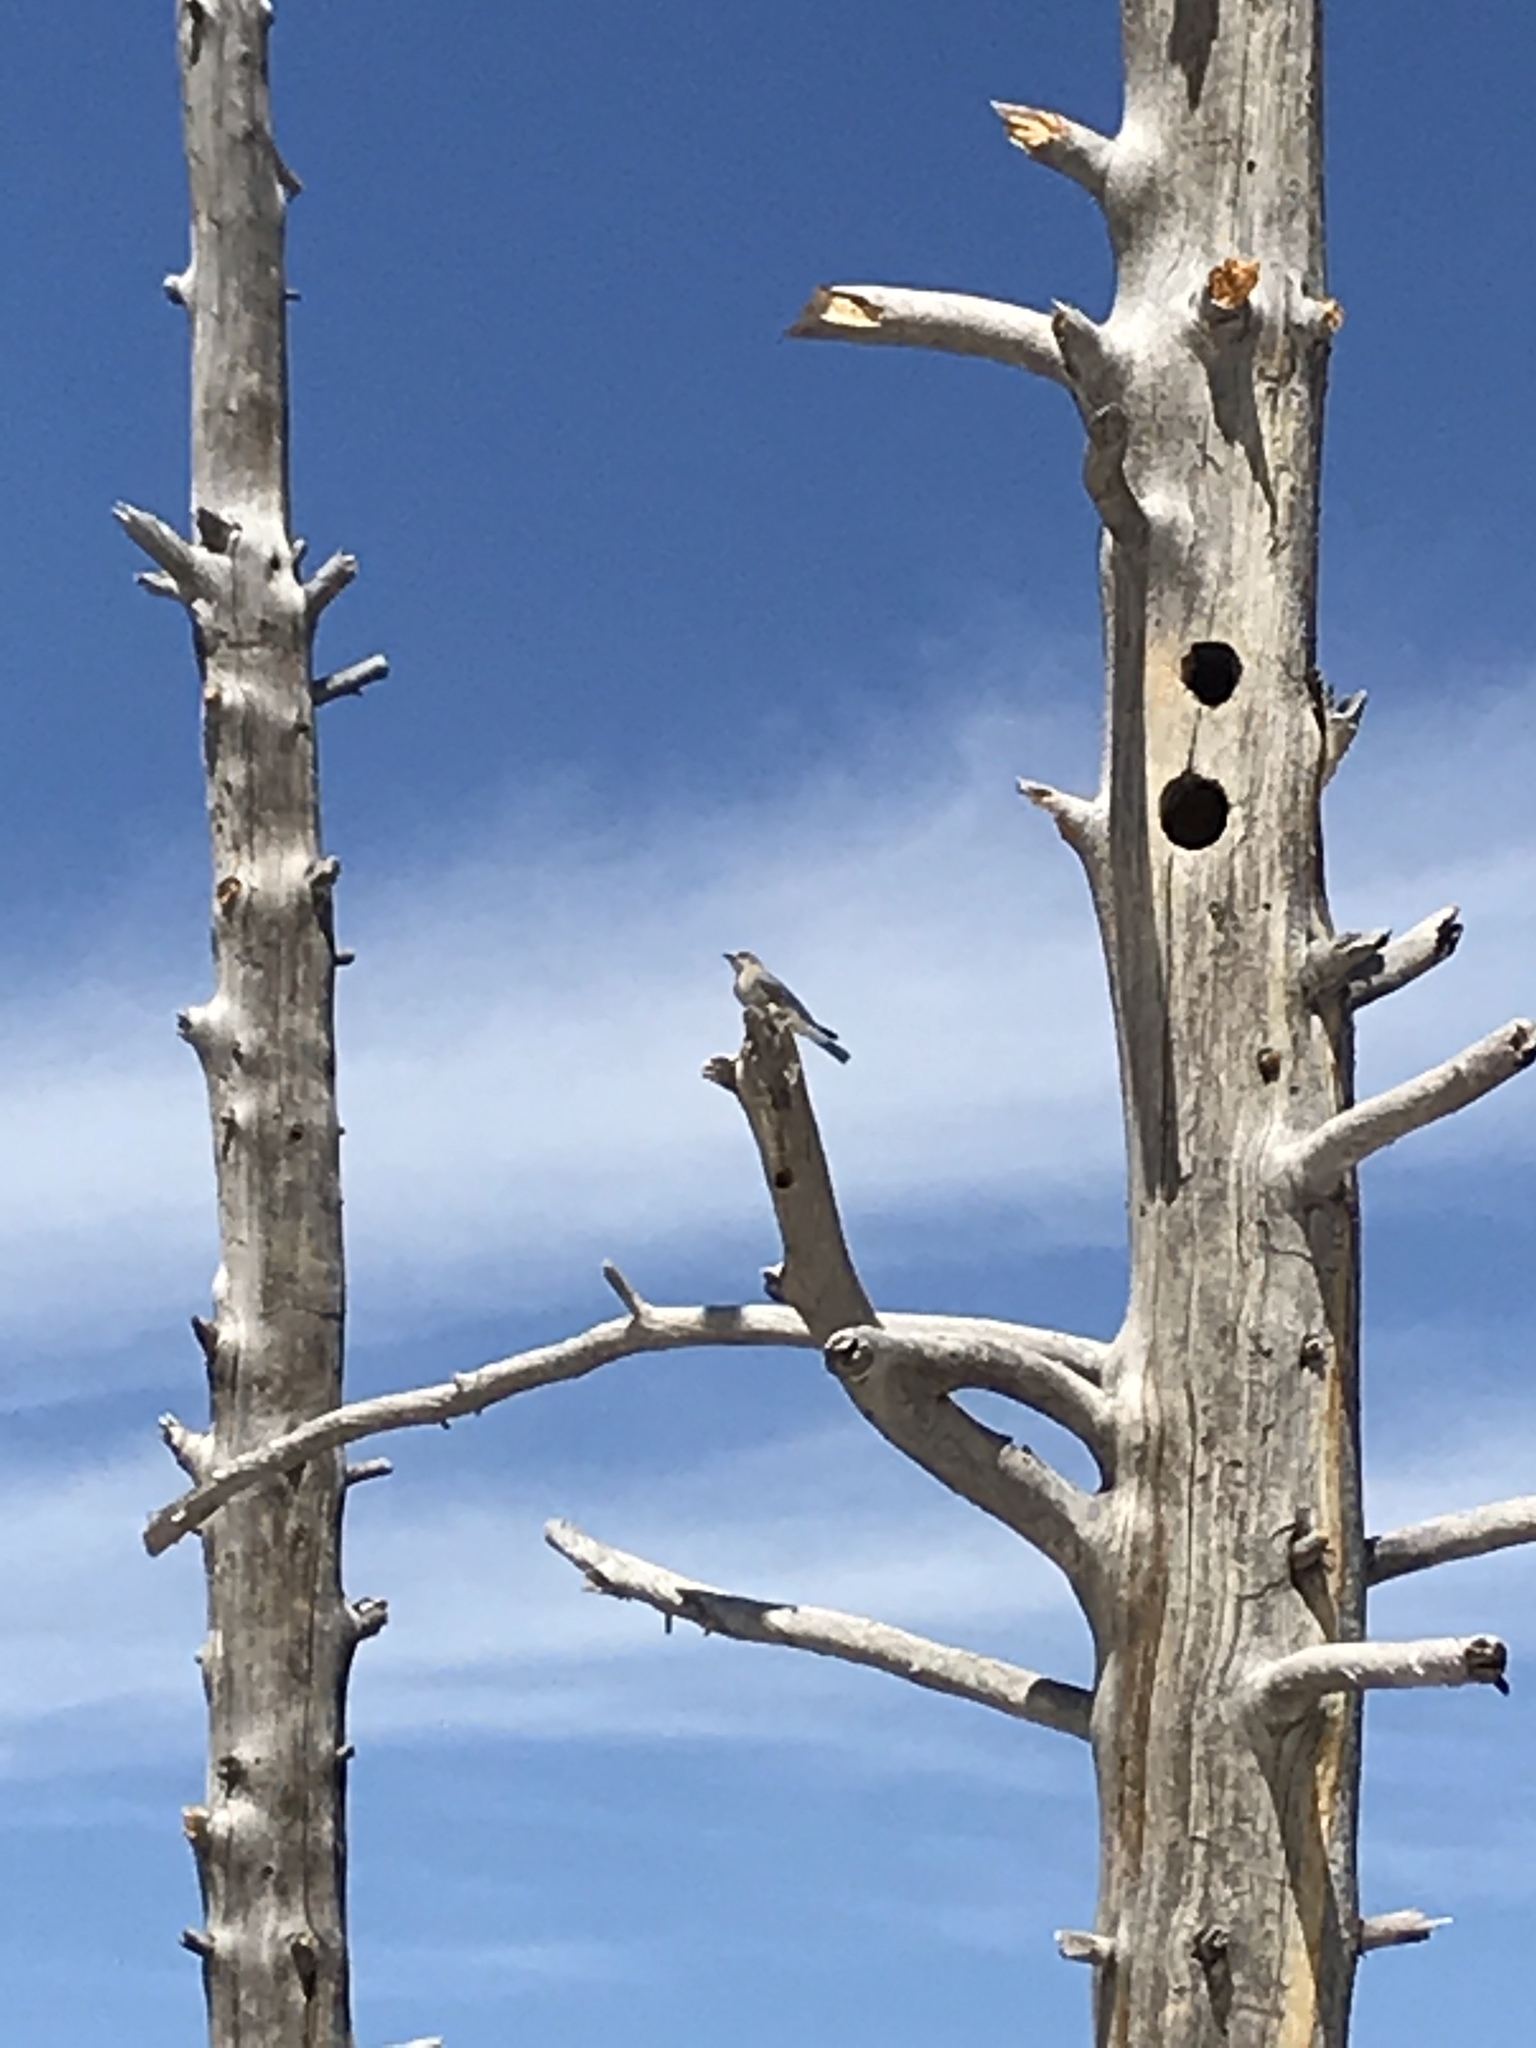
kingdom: Animalia
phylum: Chordata
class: Aves
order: Passeriformes
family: Turdidae
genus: Myadestes
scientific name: Myadestes townsendi
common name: Townsend's solitaire
